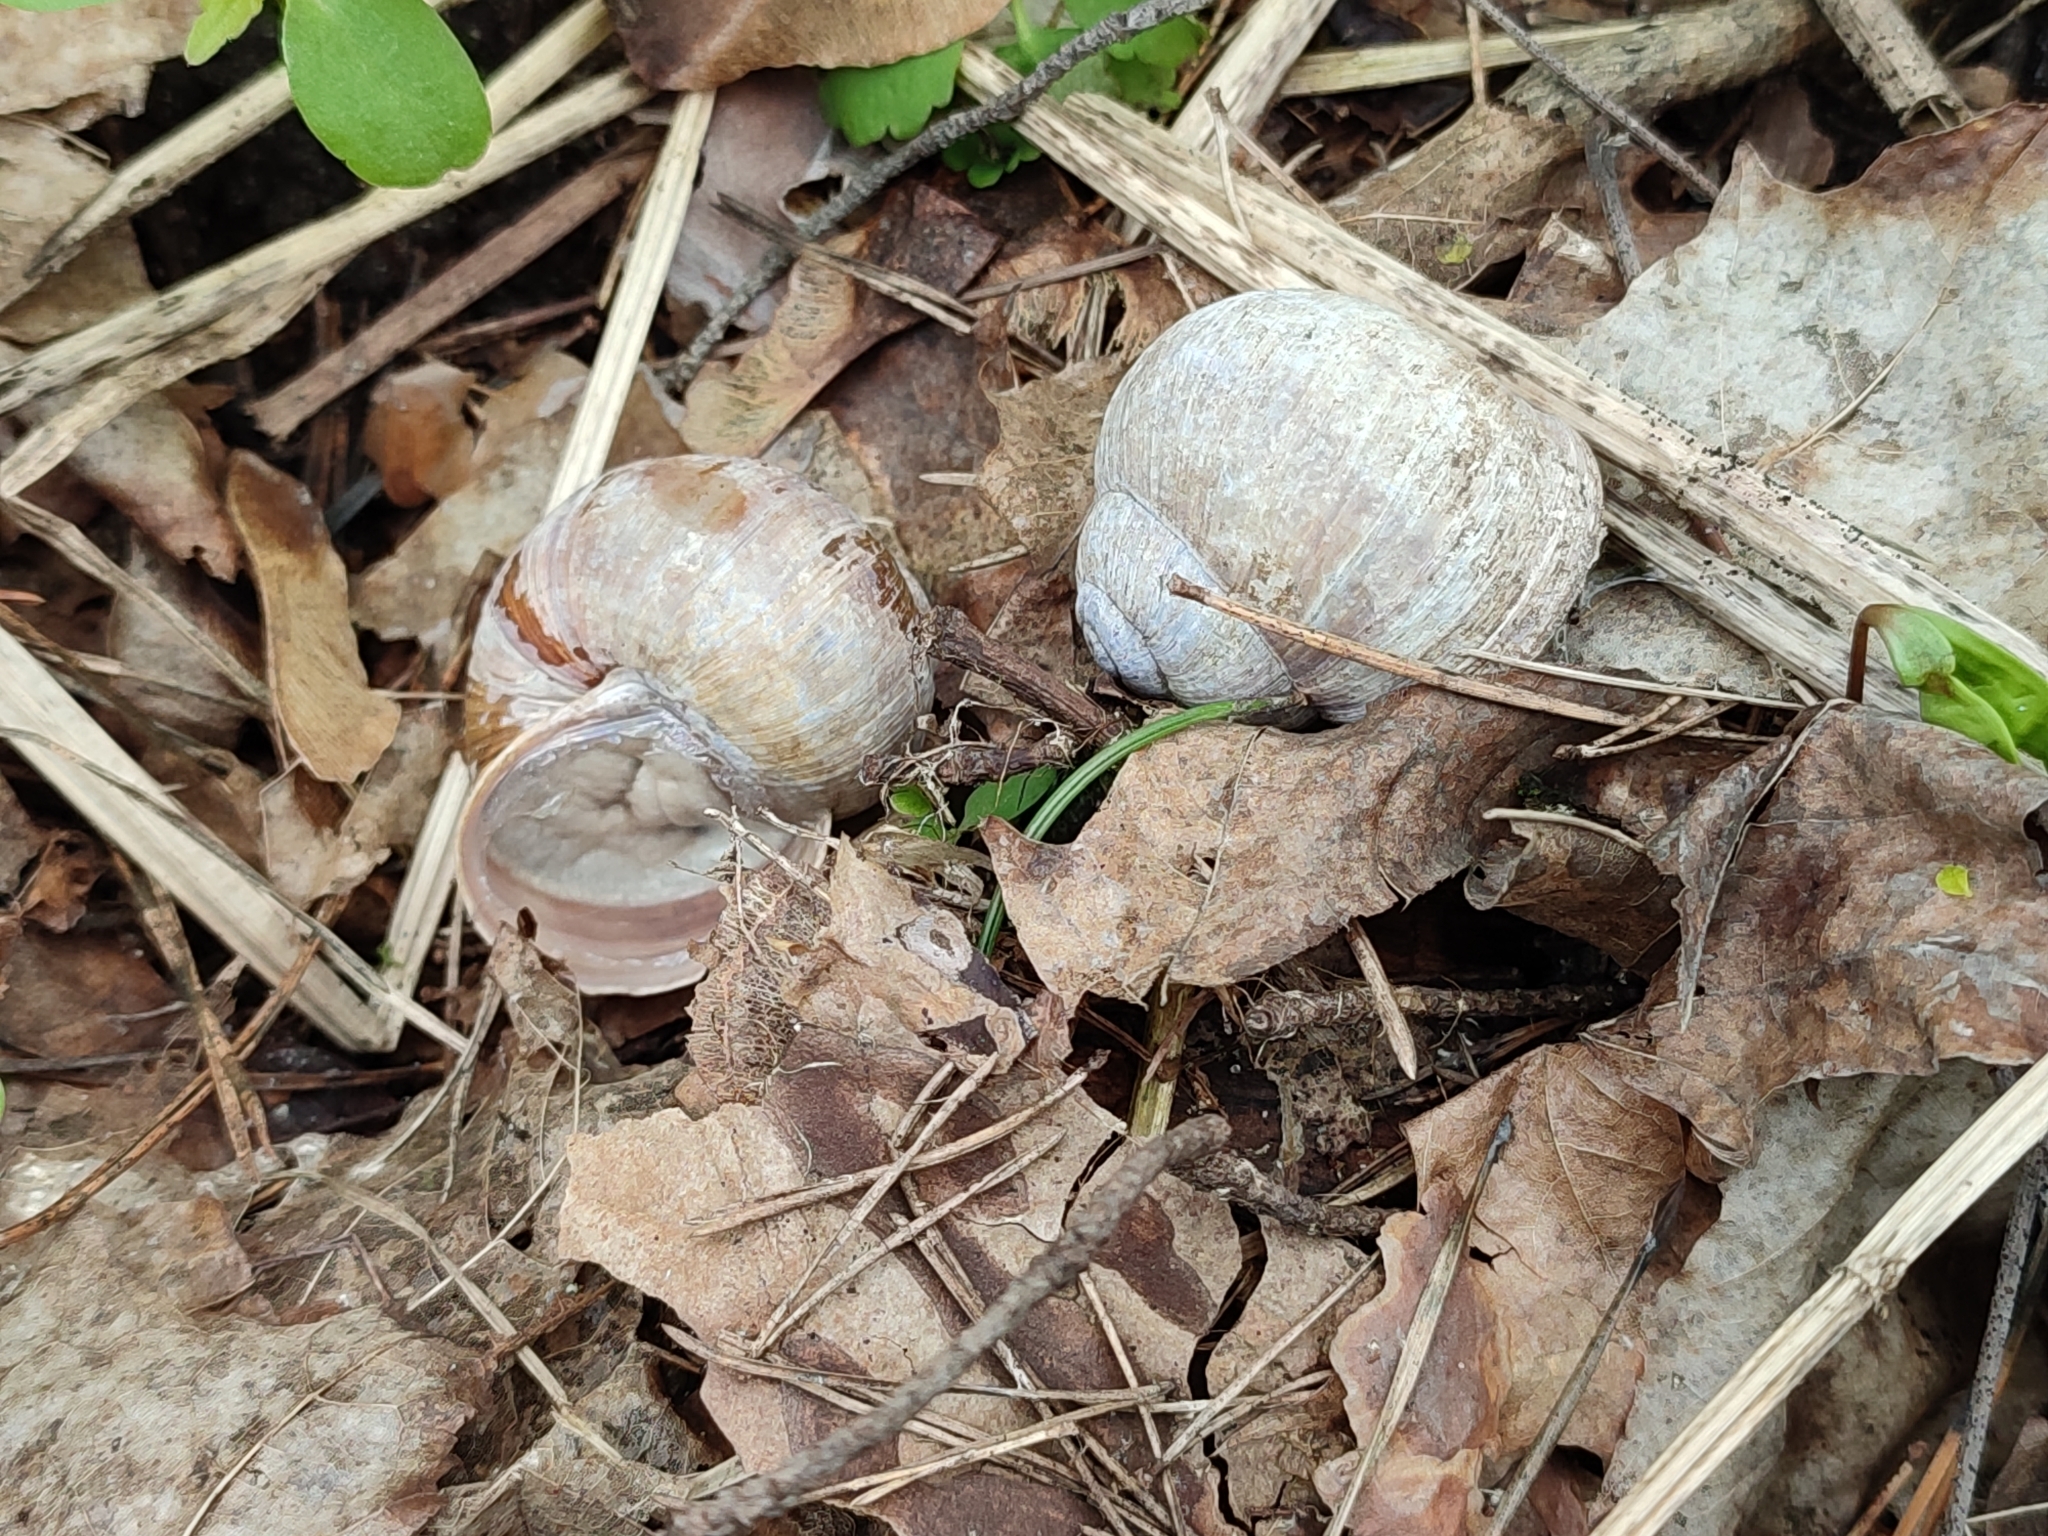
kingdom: Animalia
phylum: Mollusca
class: Gastropoda
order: Stylommatophora
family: Helicidae
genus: Helix
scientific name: Helix pomatia
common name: Roman snail
